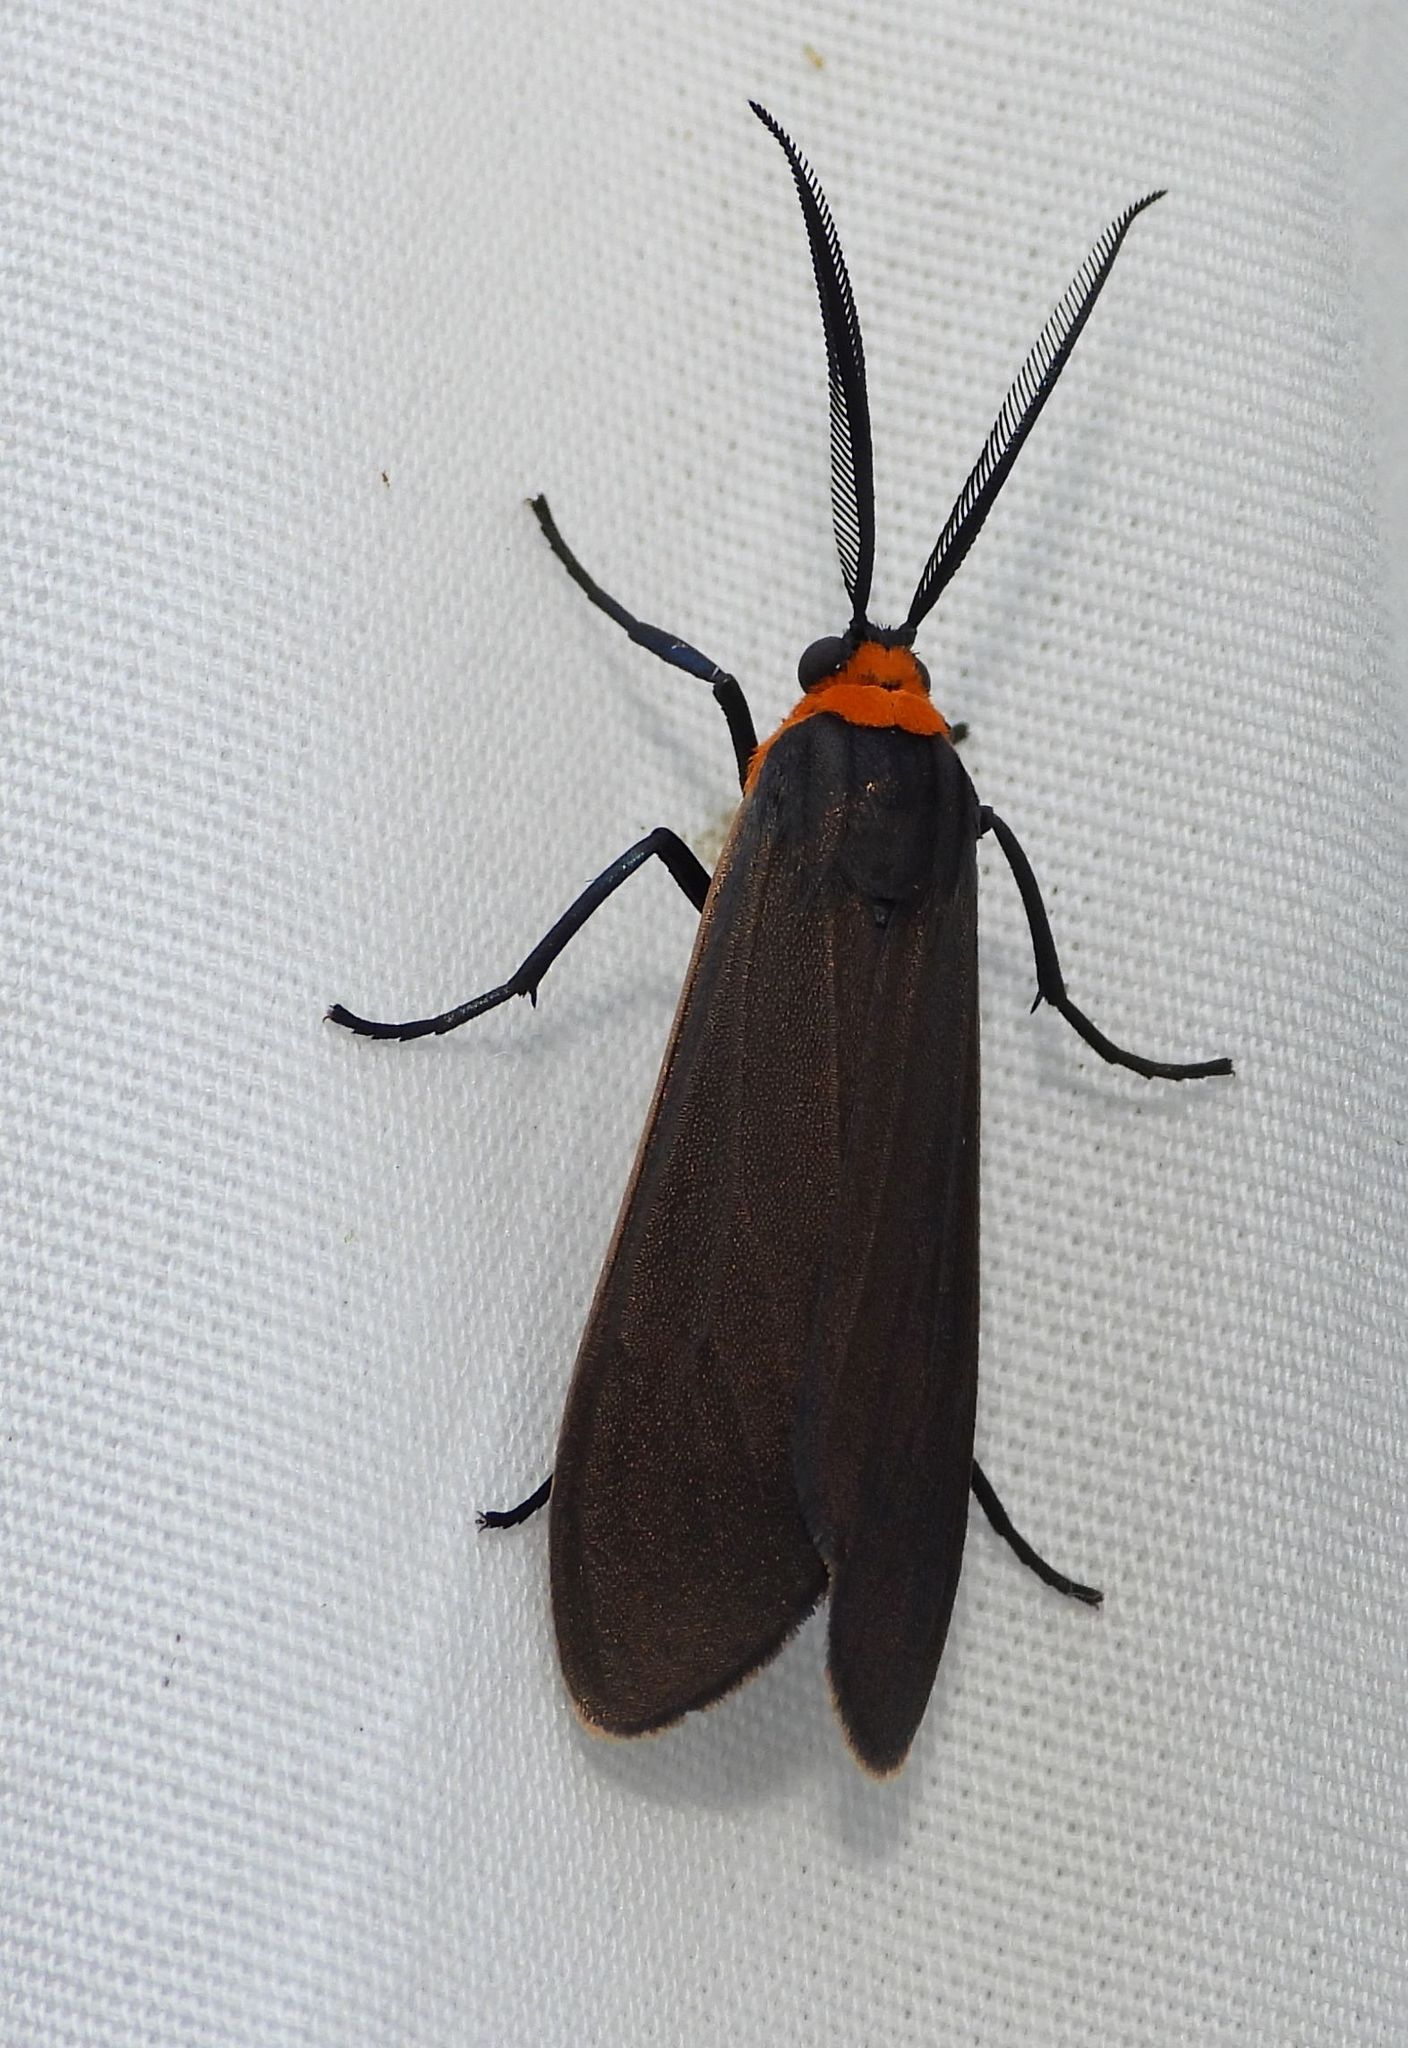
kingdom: Animalia
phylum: Arthropoda
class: Insecta
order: Lepidoptera
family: Erebidae
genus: Cisseps
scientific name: Cisseps fulvicollis
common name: Yellow-collared scape moth
